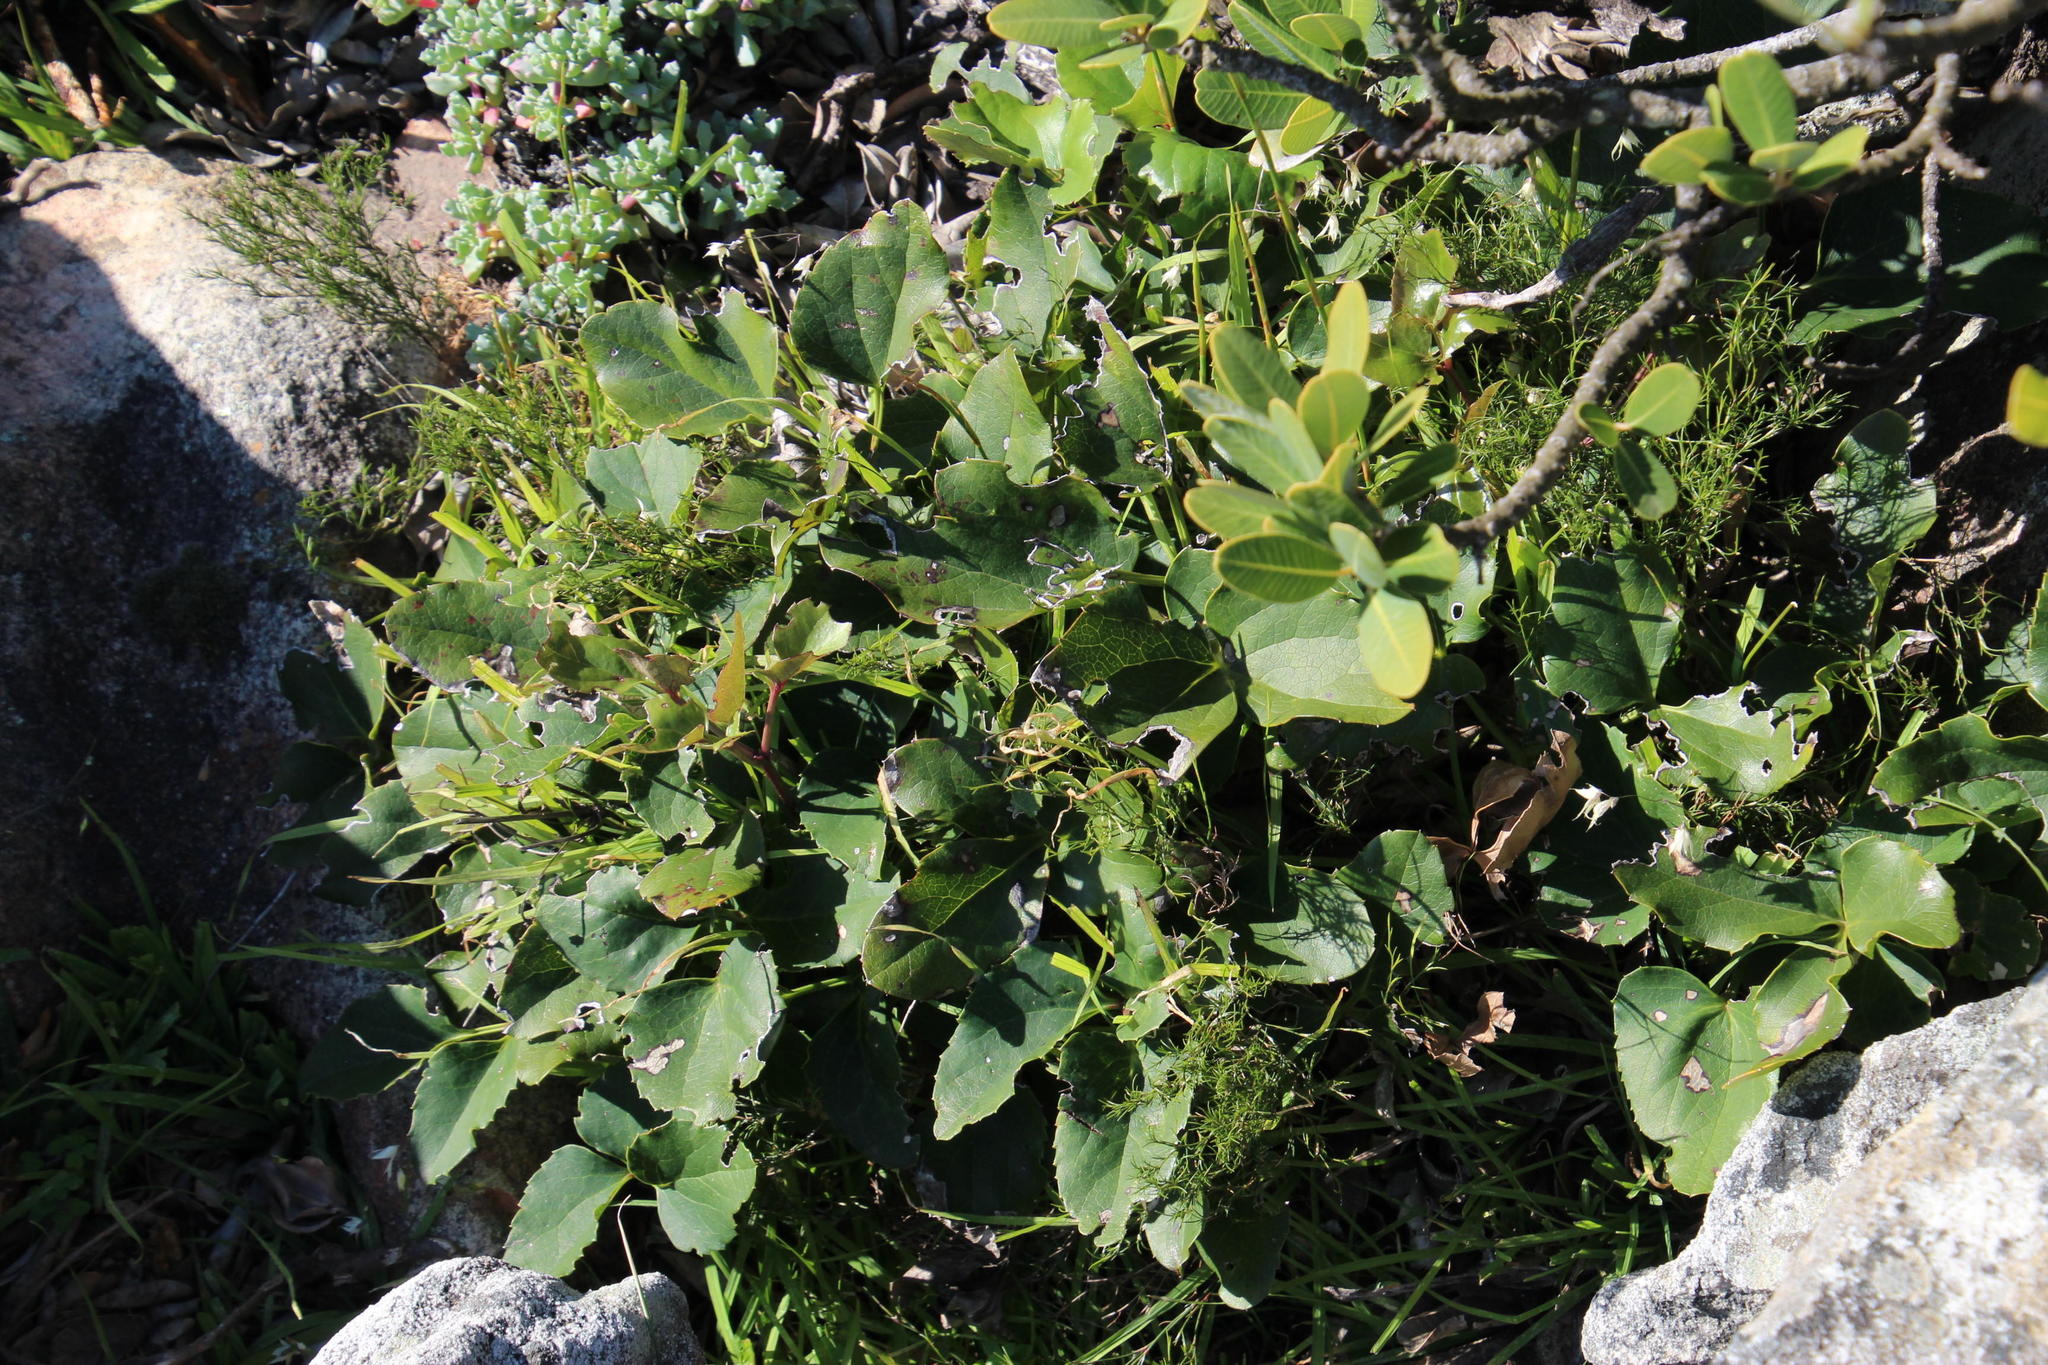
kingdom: Plantae
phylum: Tracheophyta
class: Magnoliopsida
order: Ranunculales
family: Ranunculaceae
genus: Knowltonia
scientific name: Knowltonia vesicatoria
